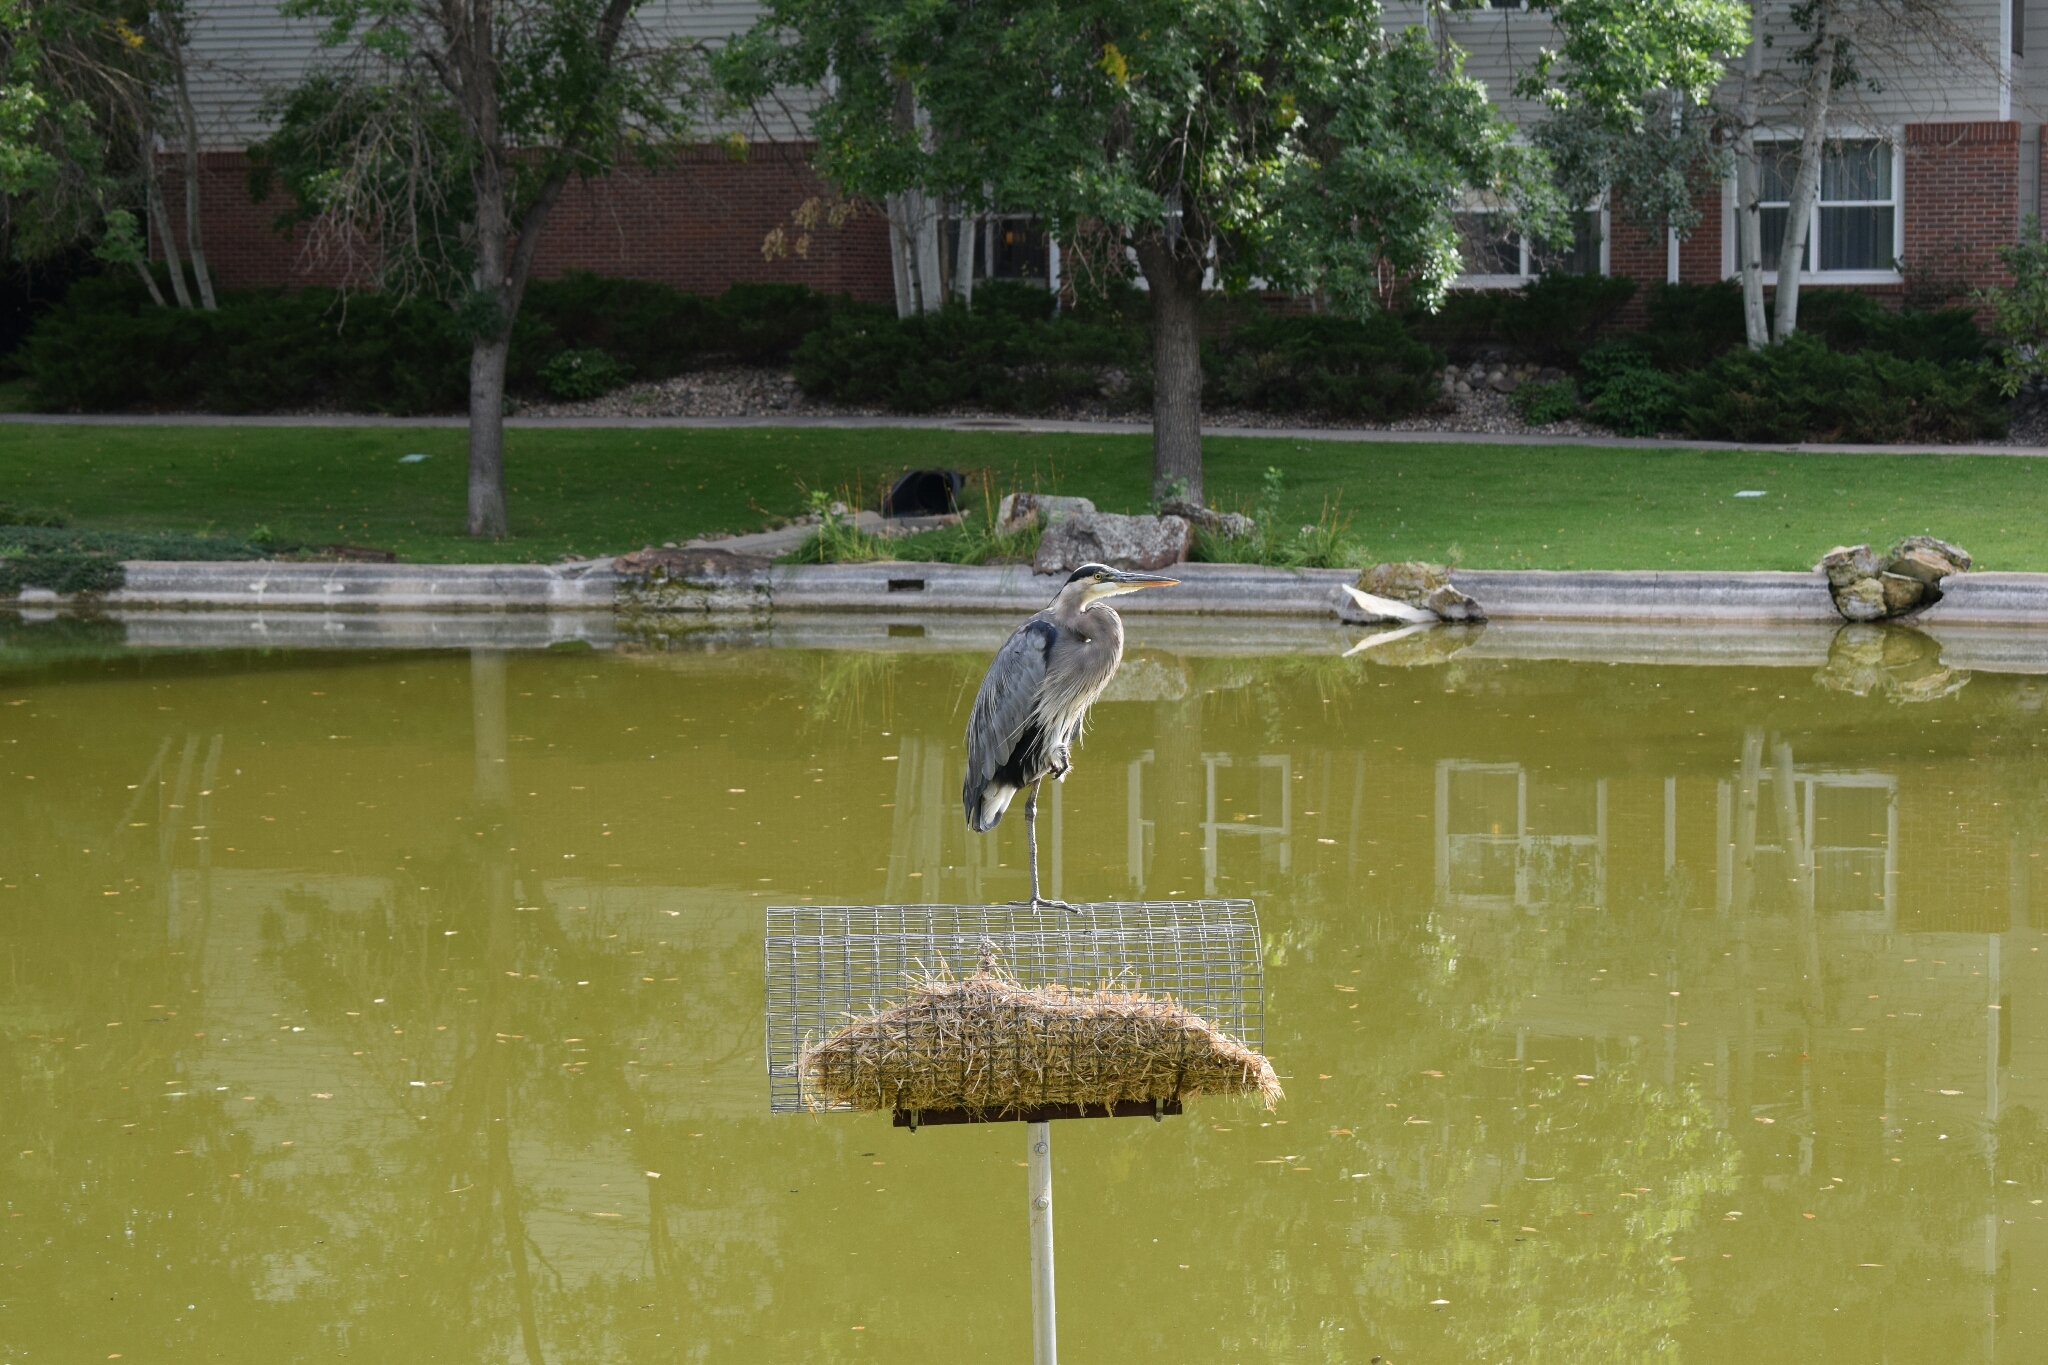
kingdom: Animalia
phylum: Chordata
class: Aves
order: Pelecaniformes
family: Ardeidae
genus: Ardea
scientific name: Ardea herodias
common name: Great blue heron
